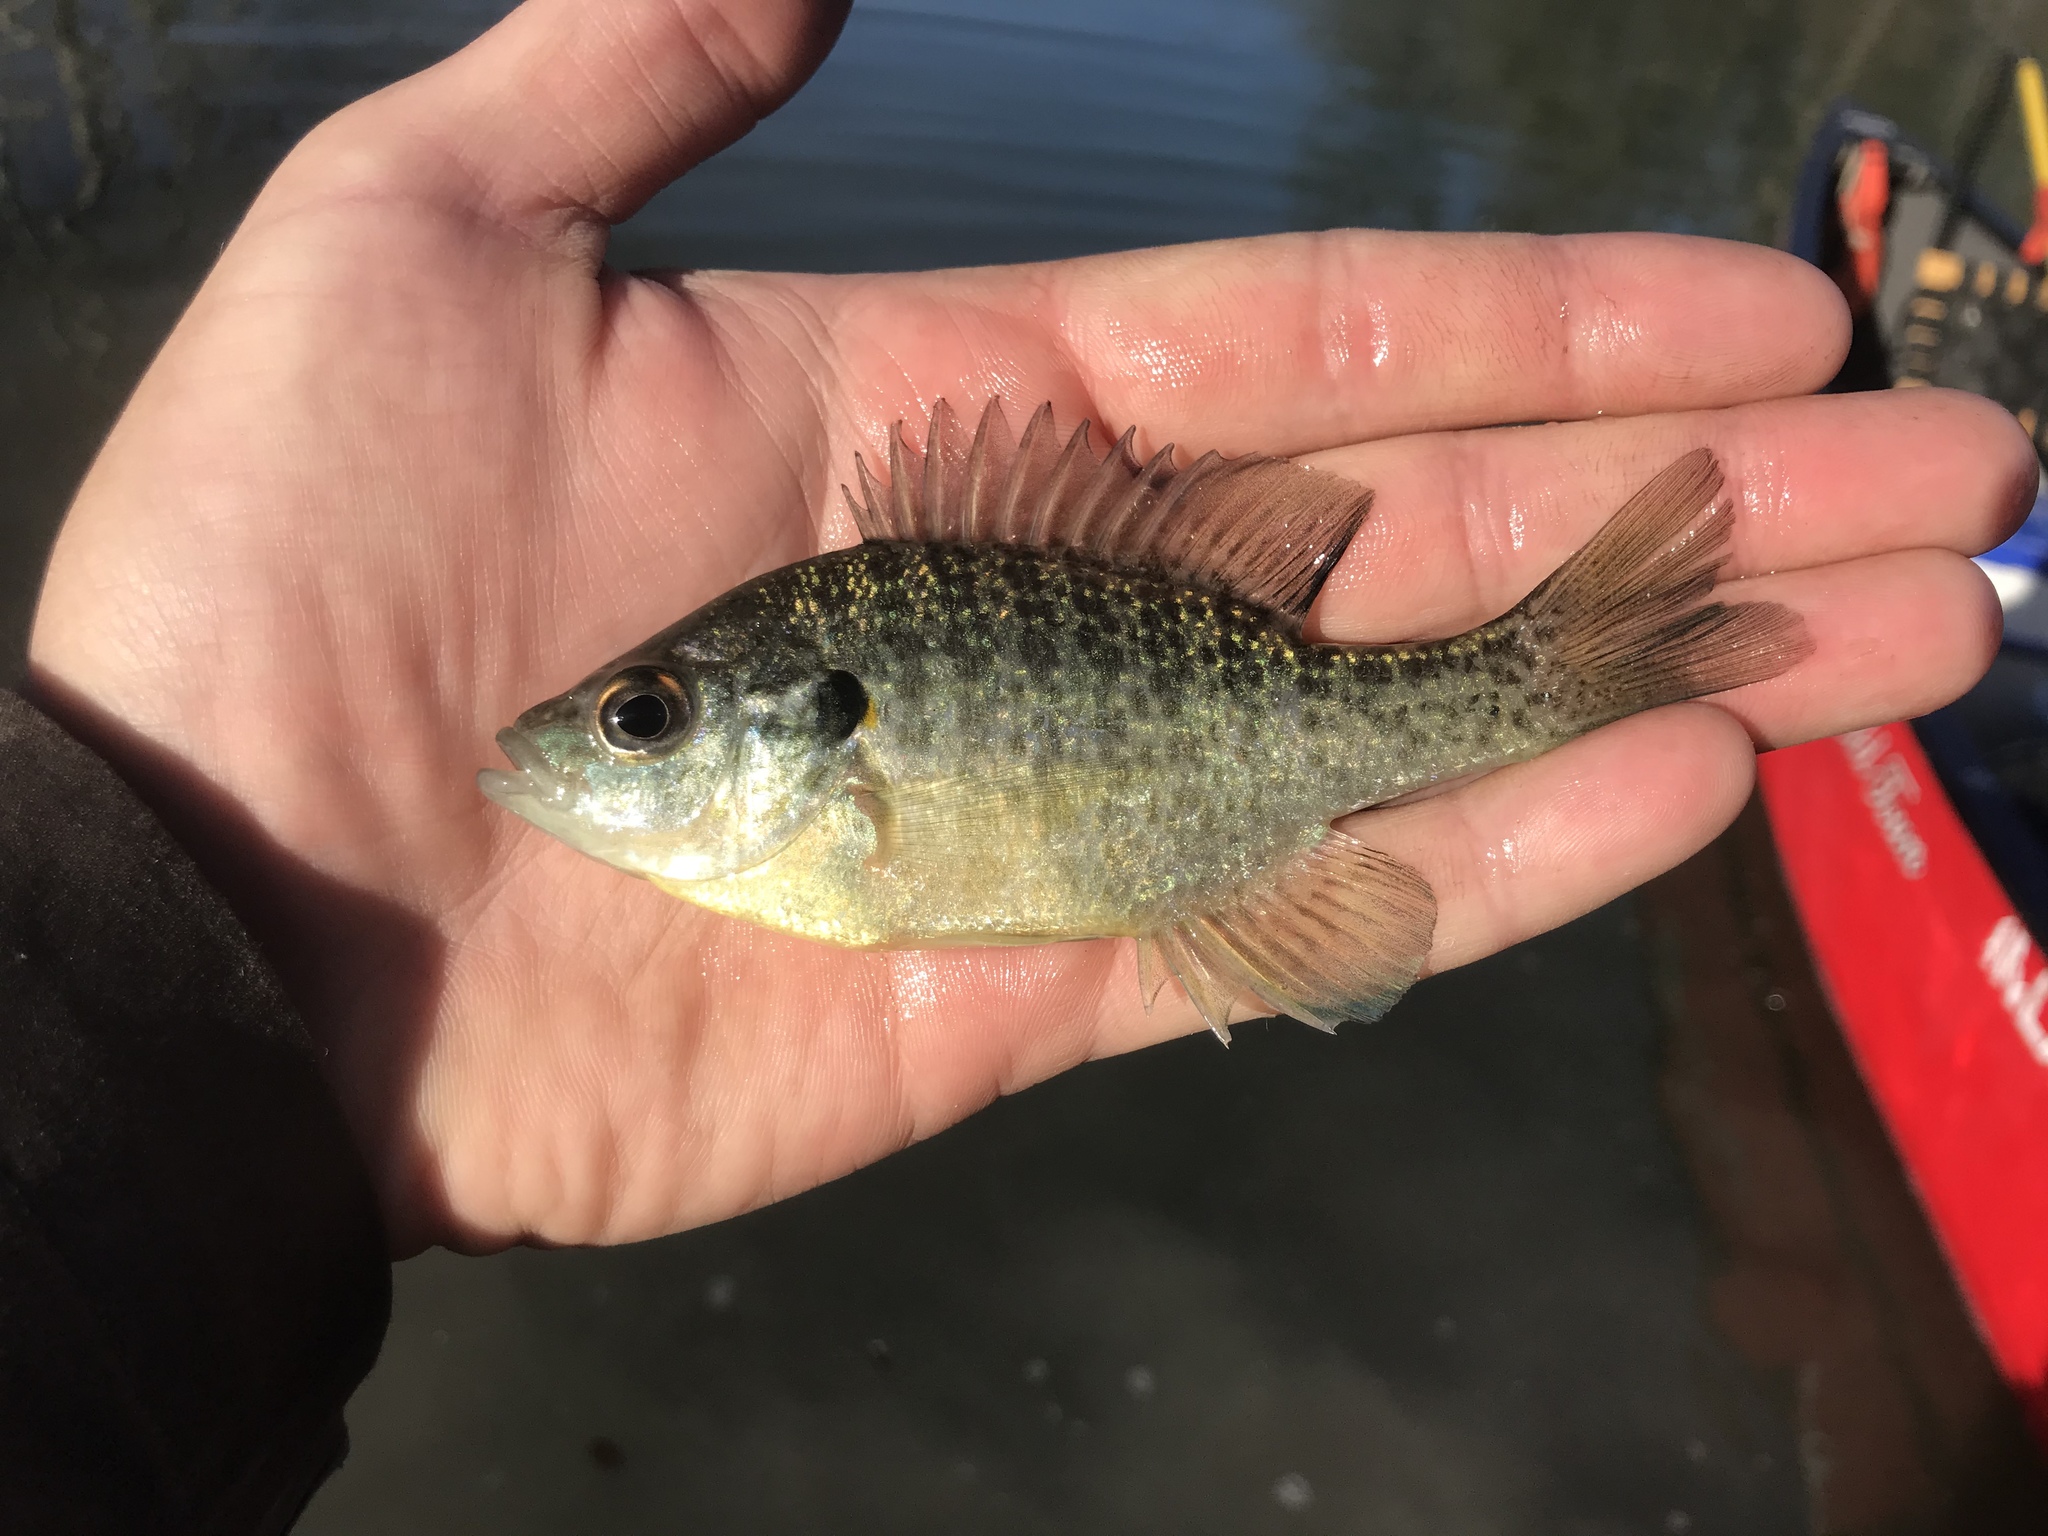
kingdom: Animalia
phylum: Chordata
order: Perciformes
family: Centrarchidae
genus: Lepomis
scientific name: Lepomis microlophus
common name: Redear sunfish
